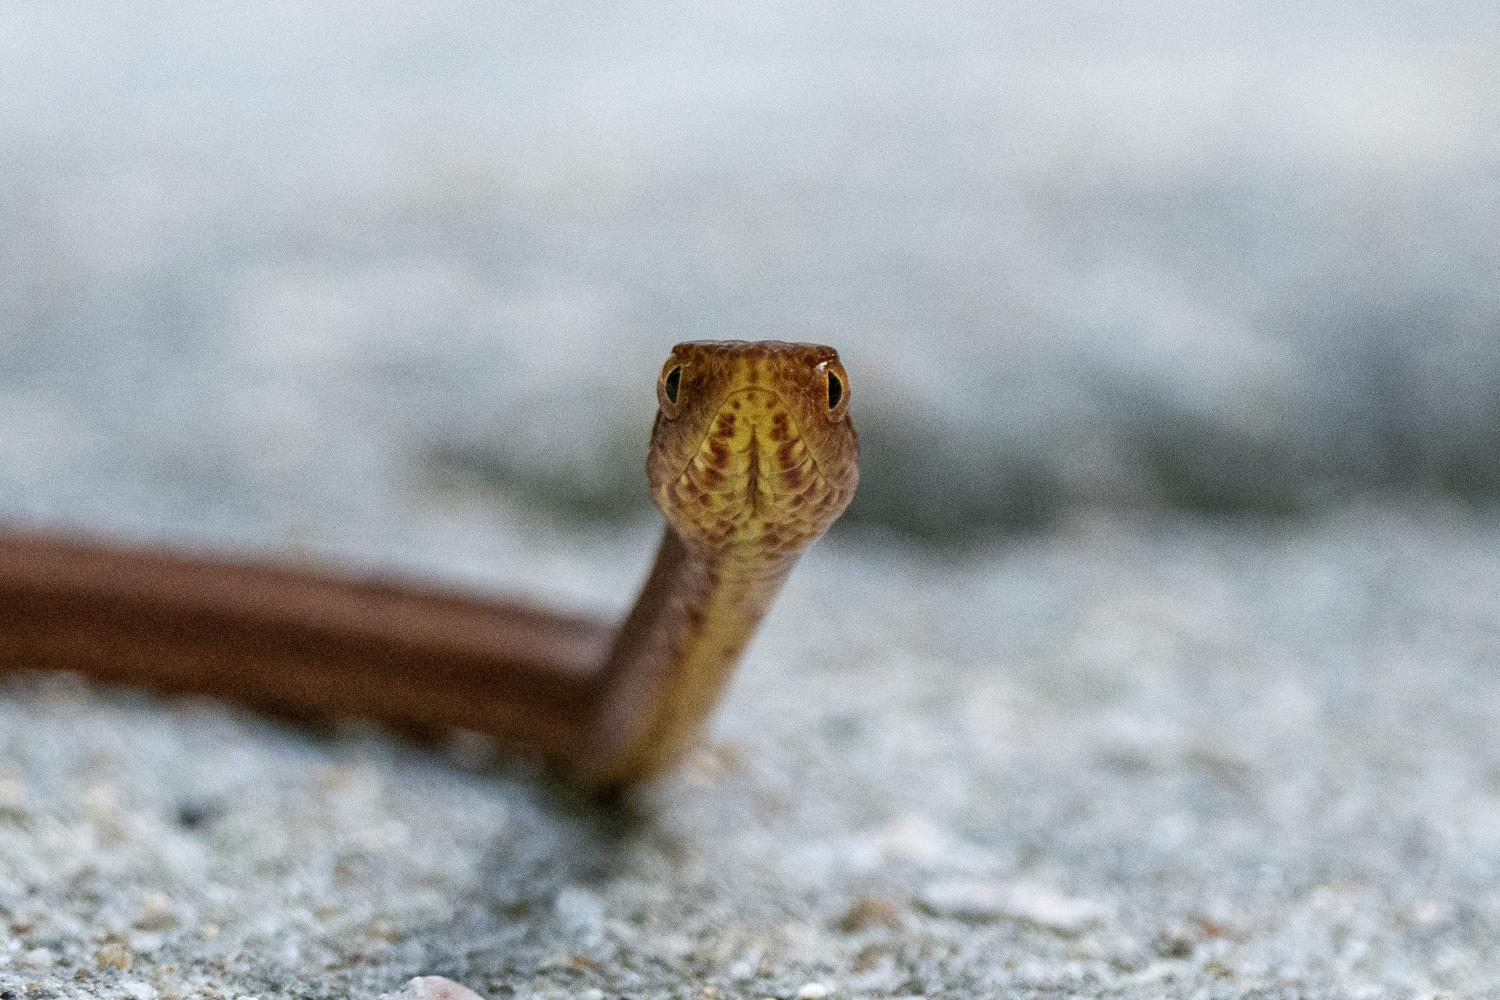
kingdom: Animalia
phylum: Chordata
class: Squamata
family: Pseudaspididae
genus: Psammodynastes
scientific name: Psammodynastes pulverulentus
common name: Common mock viper
